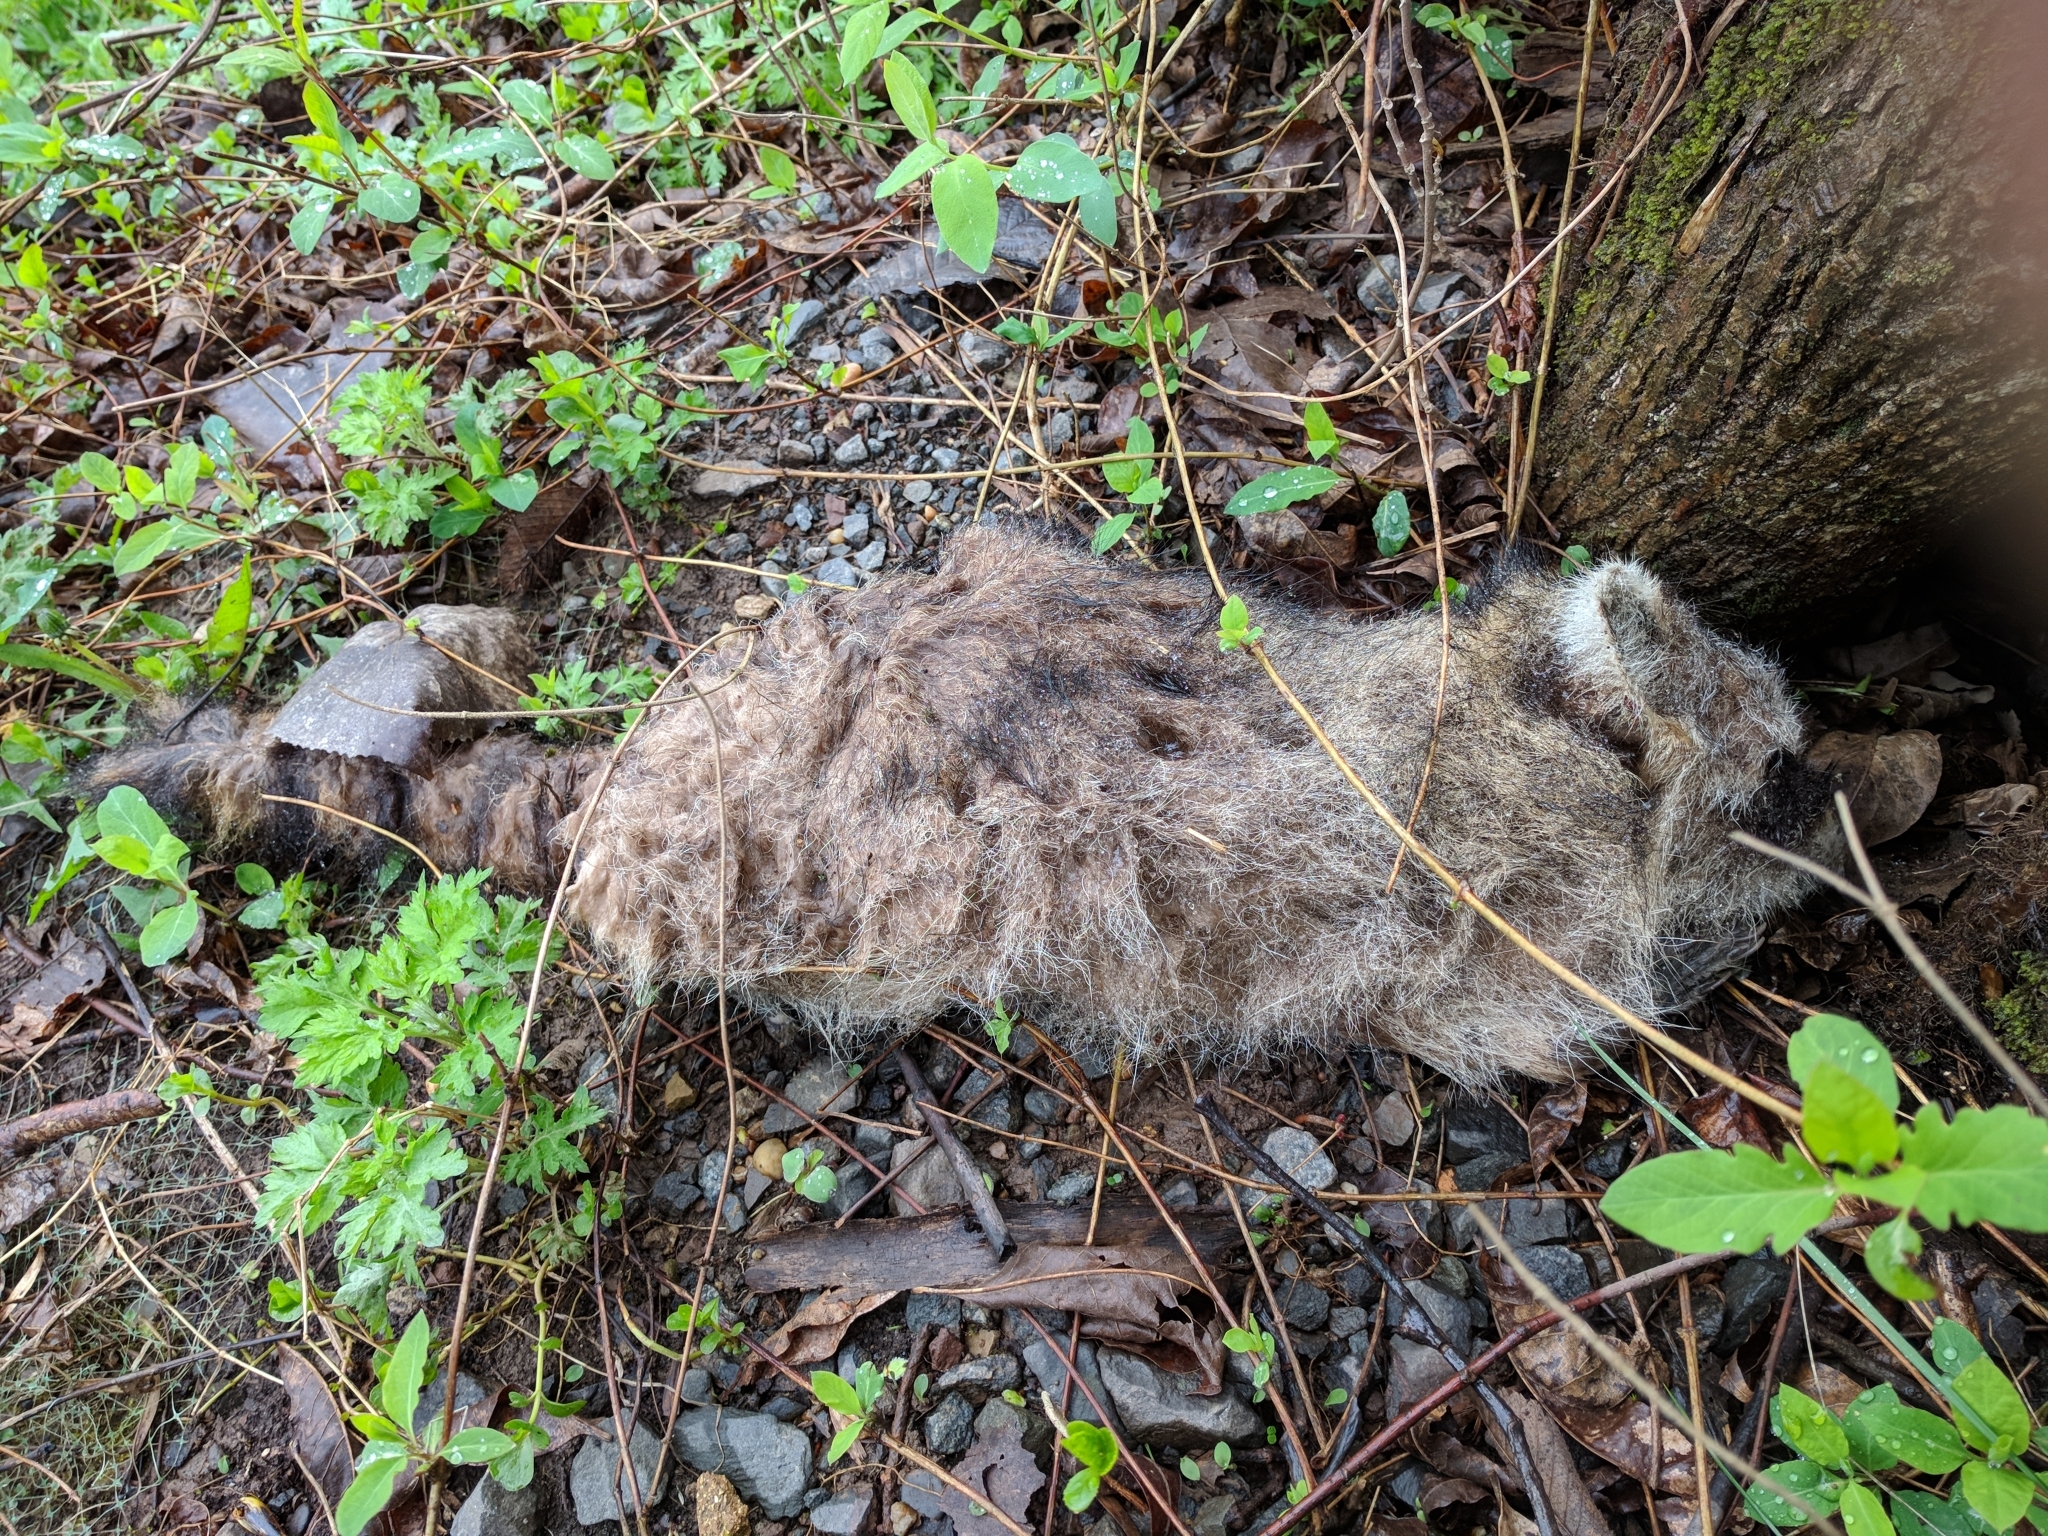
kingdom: Animalia
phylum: Chordata
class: Mammalia
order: Carnivora
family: Procyonidae
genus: Procyon
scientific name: Procyon lotor
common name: Raccoon
